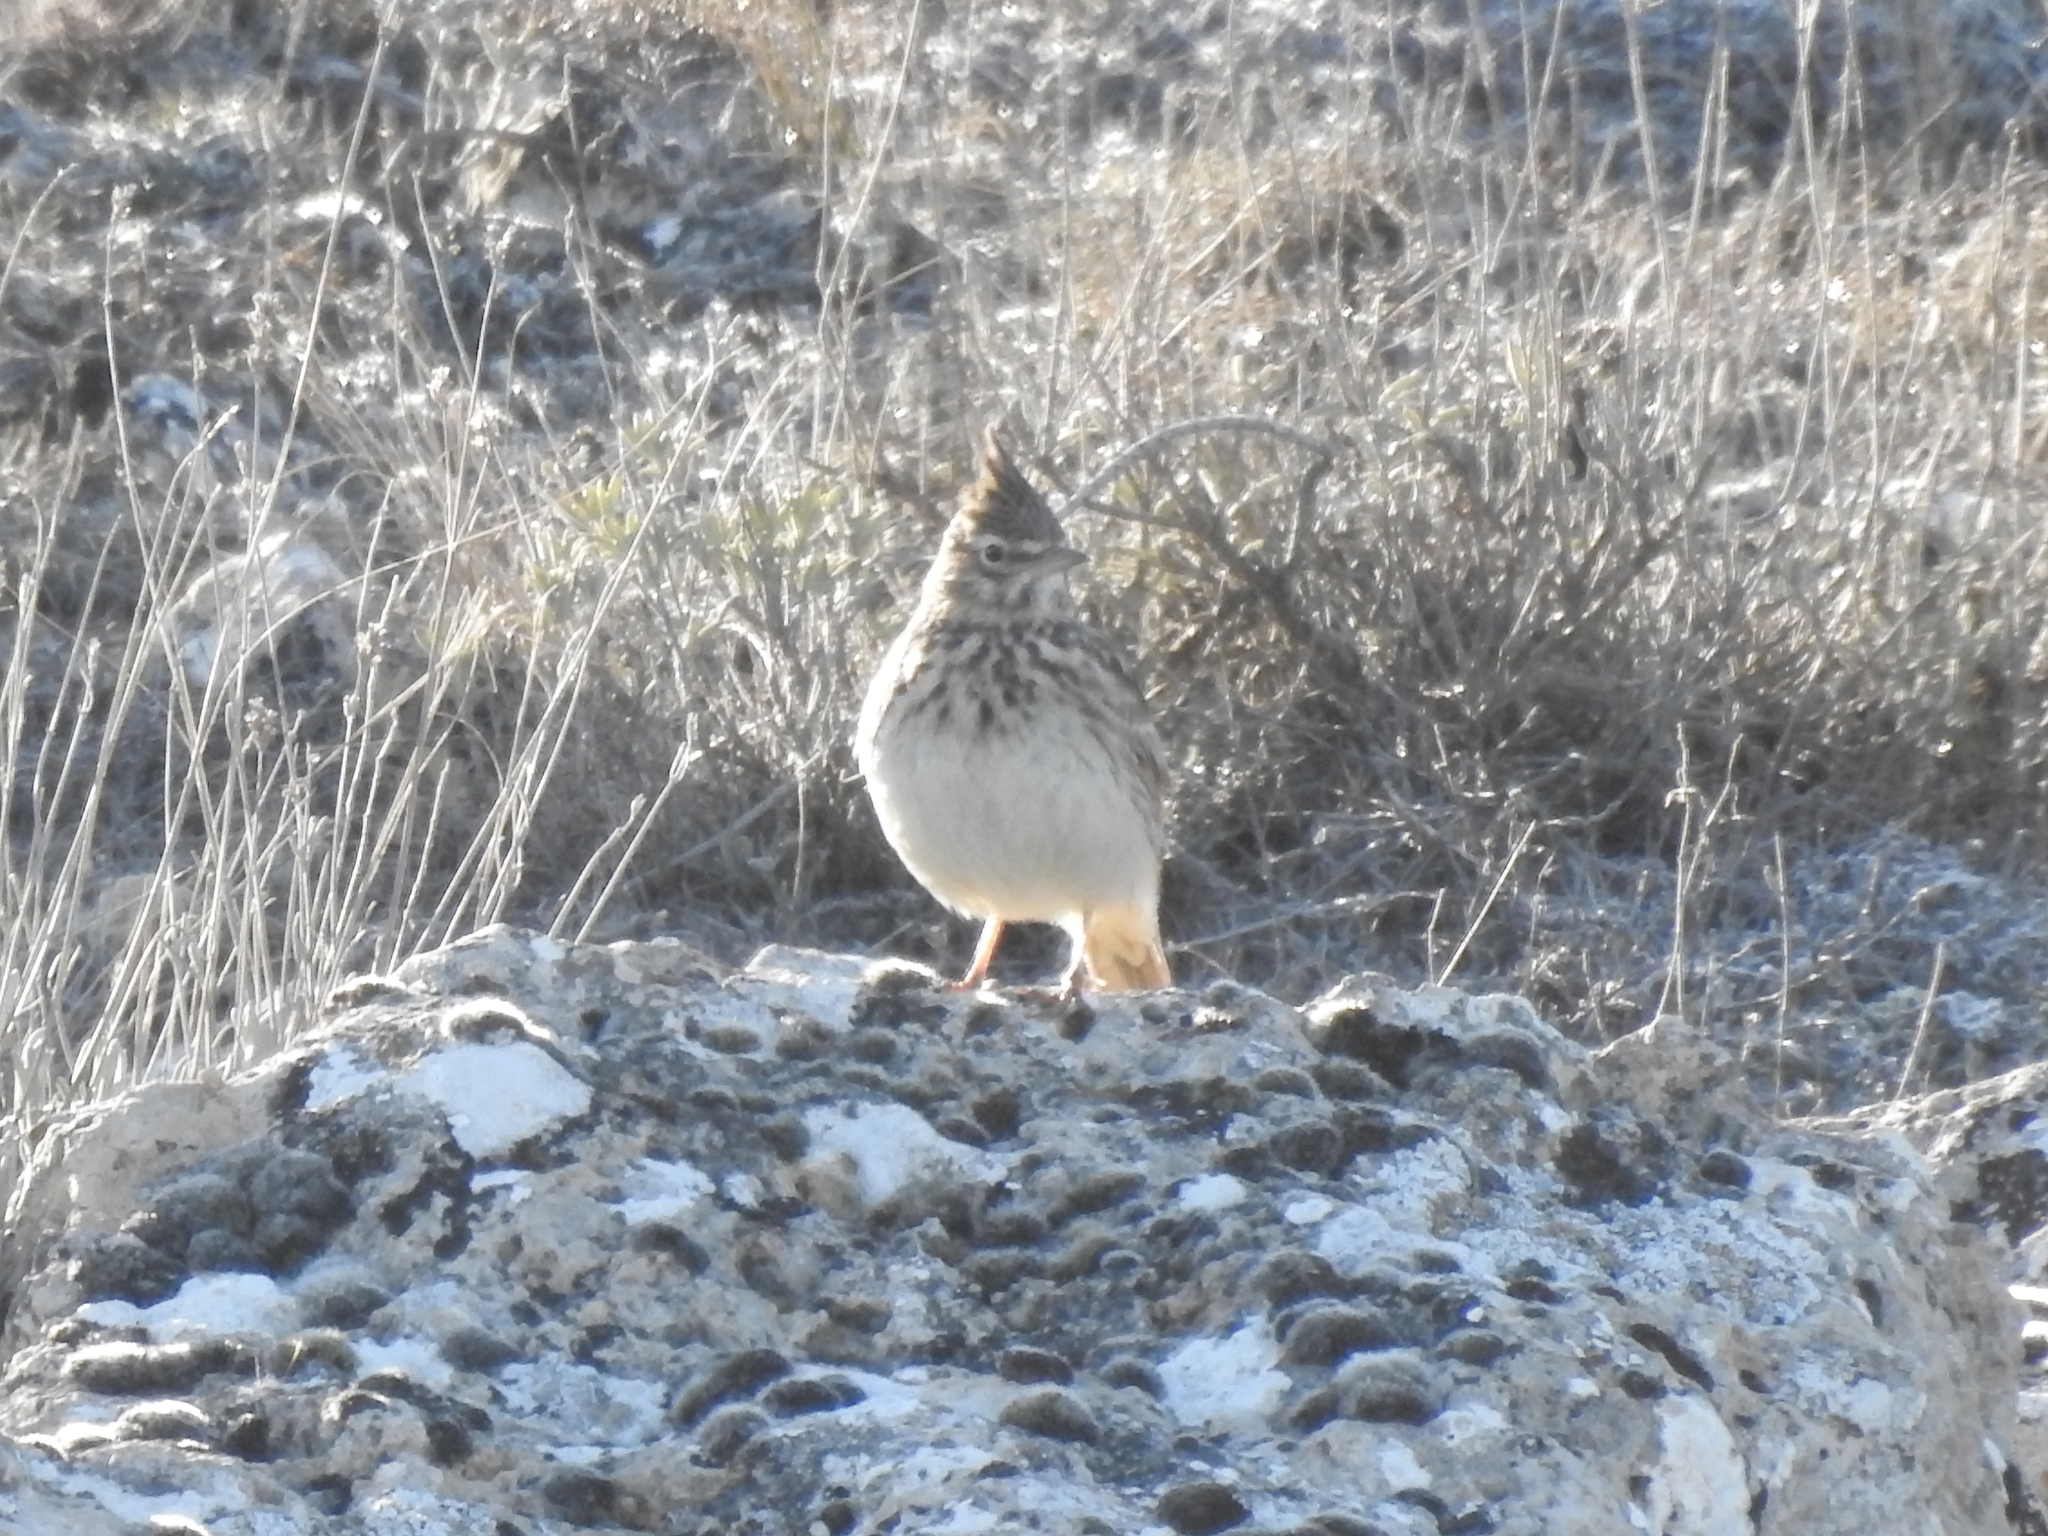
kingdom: Animalia
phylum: Chordata
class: Aves
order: Passeriformes
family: Alaudidae
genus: Galerida
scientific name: Galerida theklae
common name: Thekla lark
